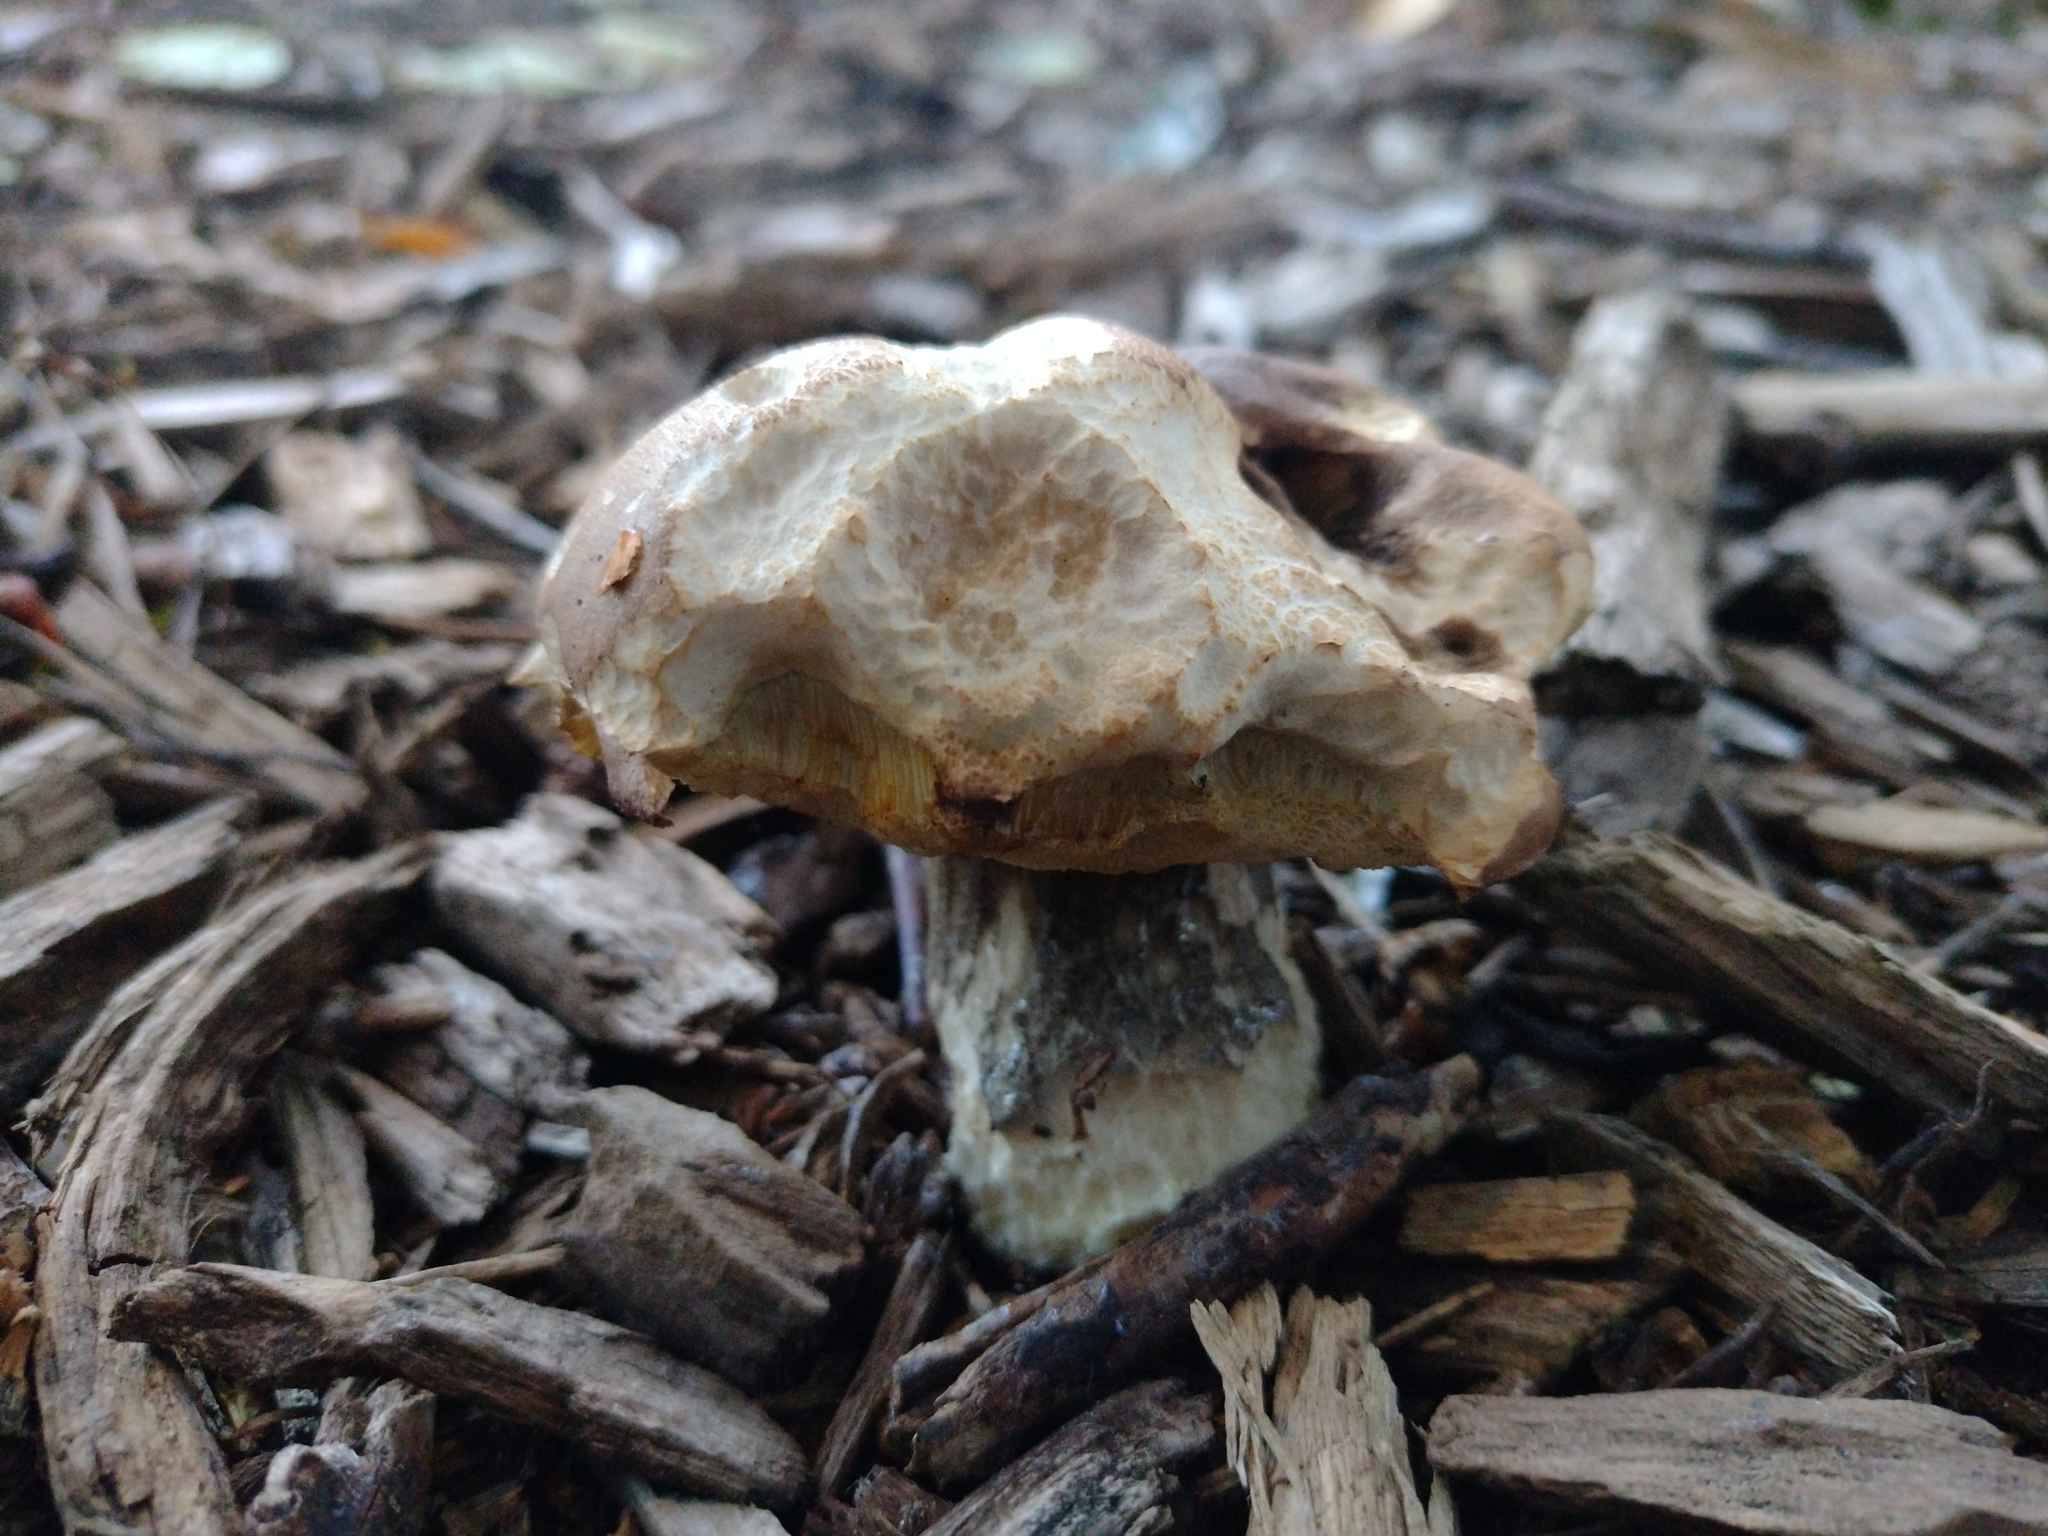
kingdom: Fungi
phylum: Basidiomycota
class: Agaricomycetes
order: Boletales
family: Boletaceae
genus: Leccinum
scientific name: Leccinum scabrum
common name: Blushing bolete
